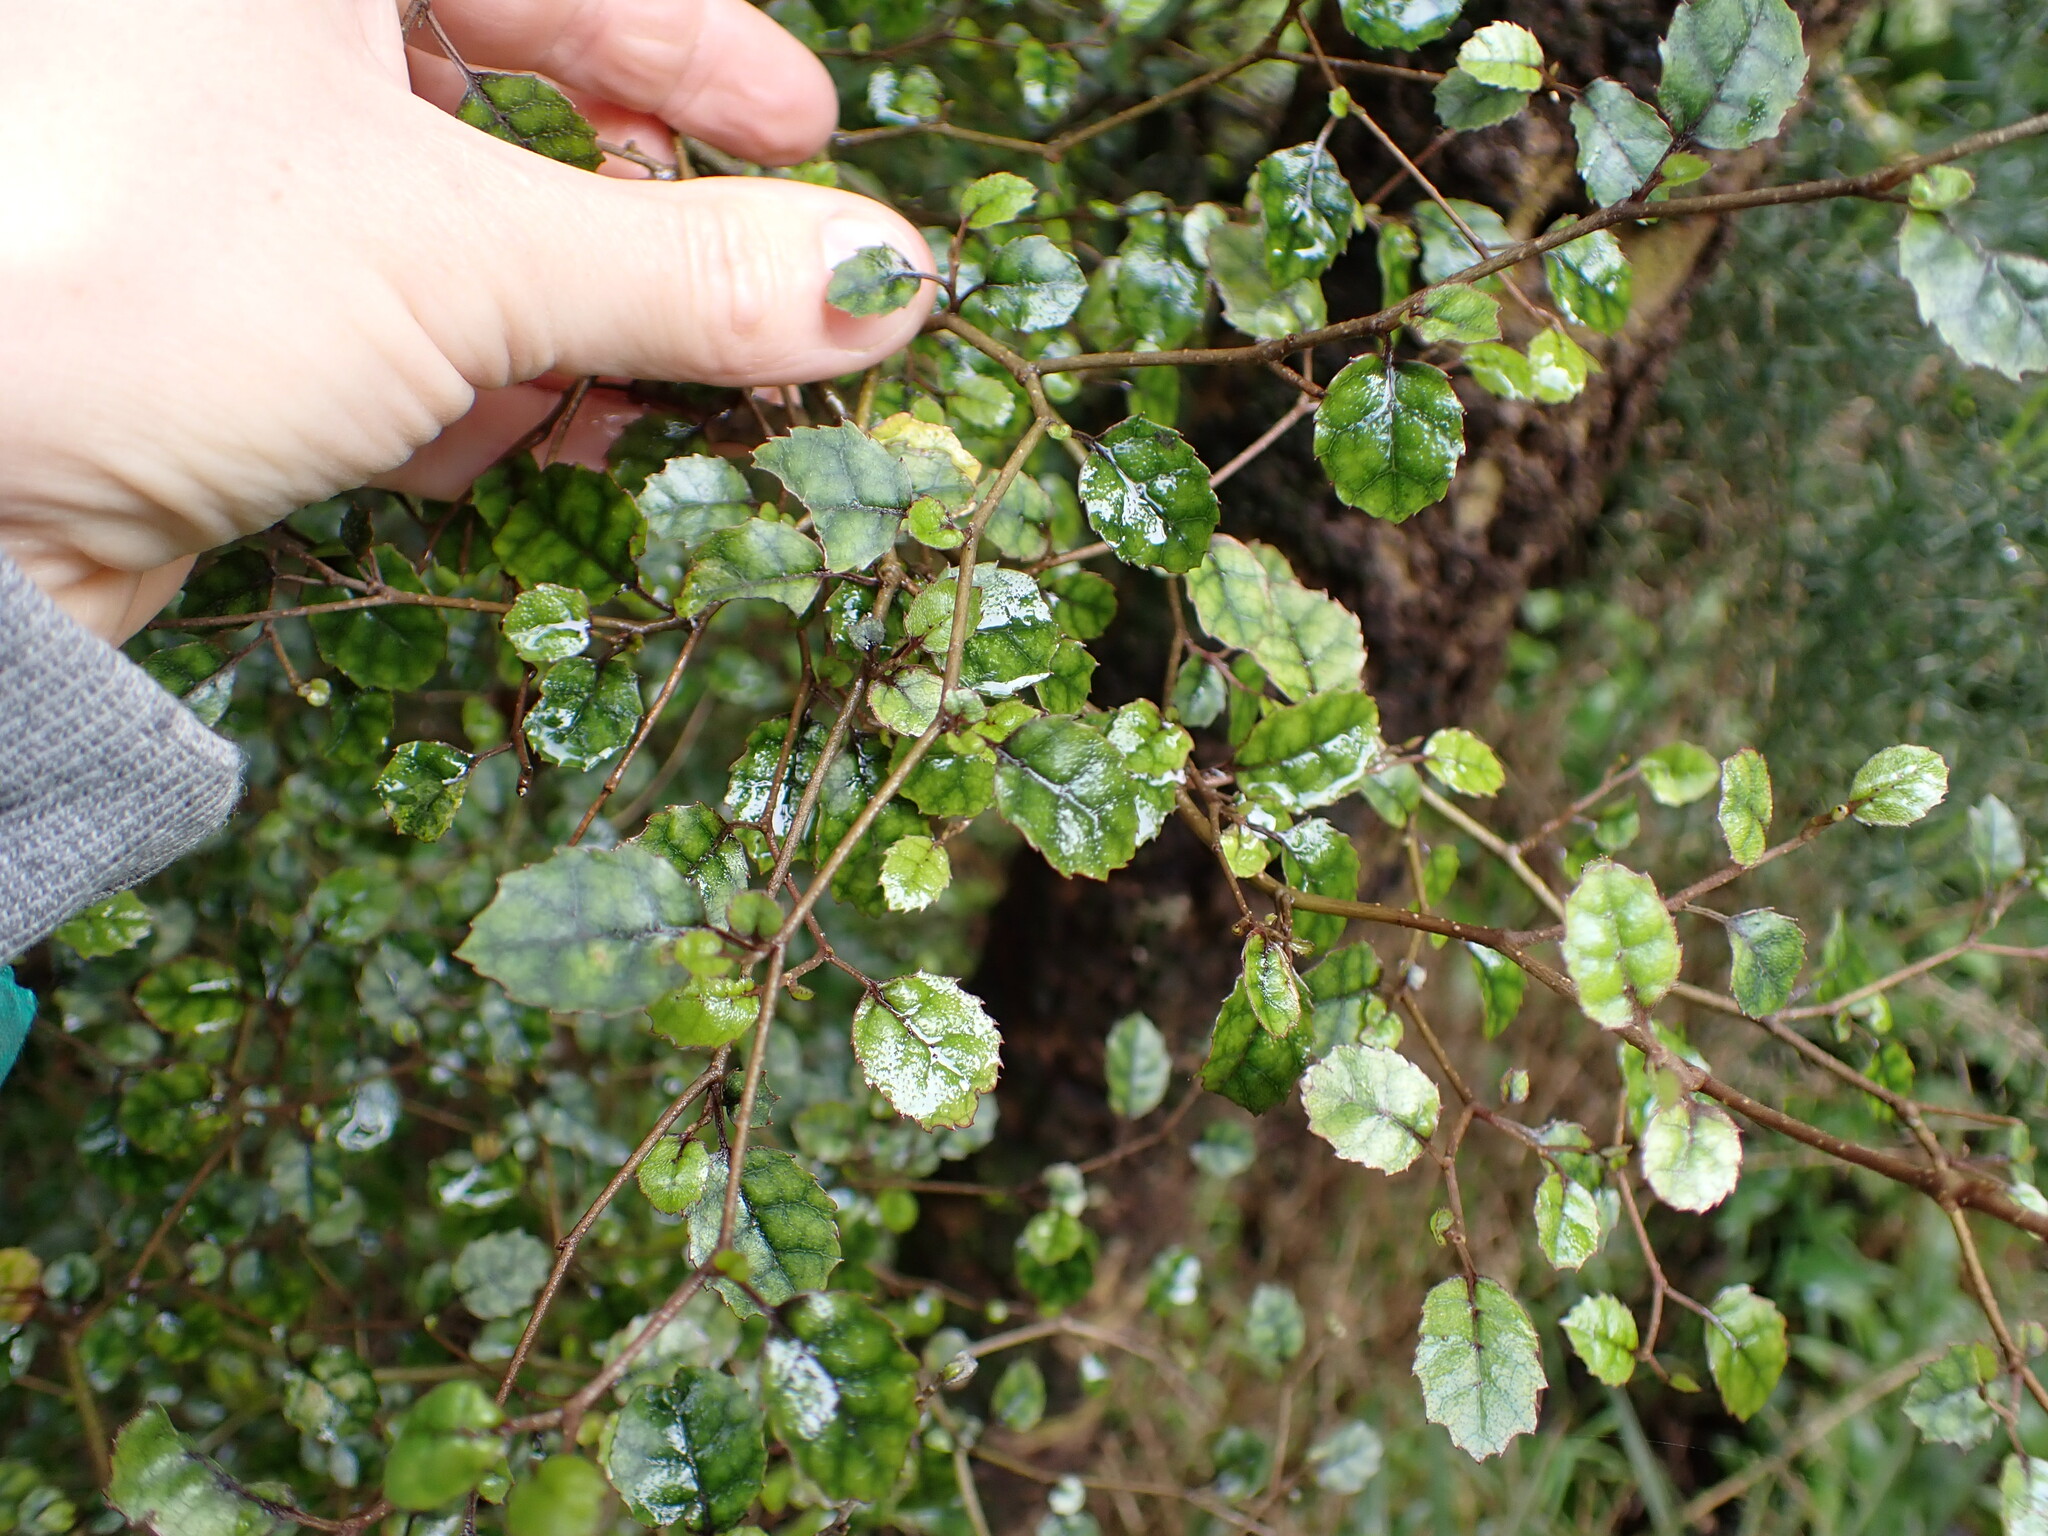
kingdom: Plantae
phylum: Tracheophyta
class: Magnoliopsida
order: Asterales
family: Rousseaceae
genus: Carpodetus
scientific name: Carpodetus serratus
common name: White mapau
